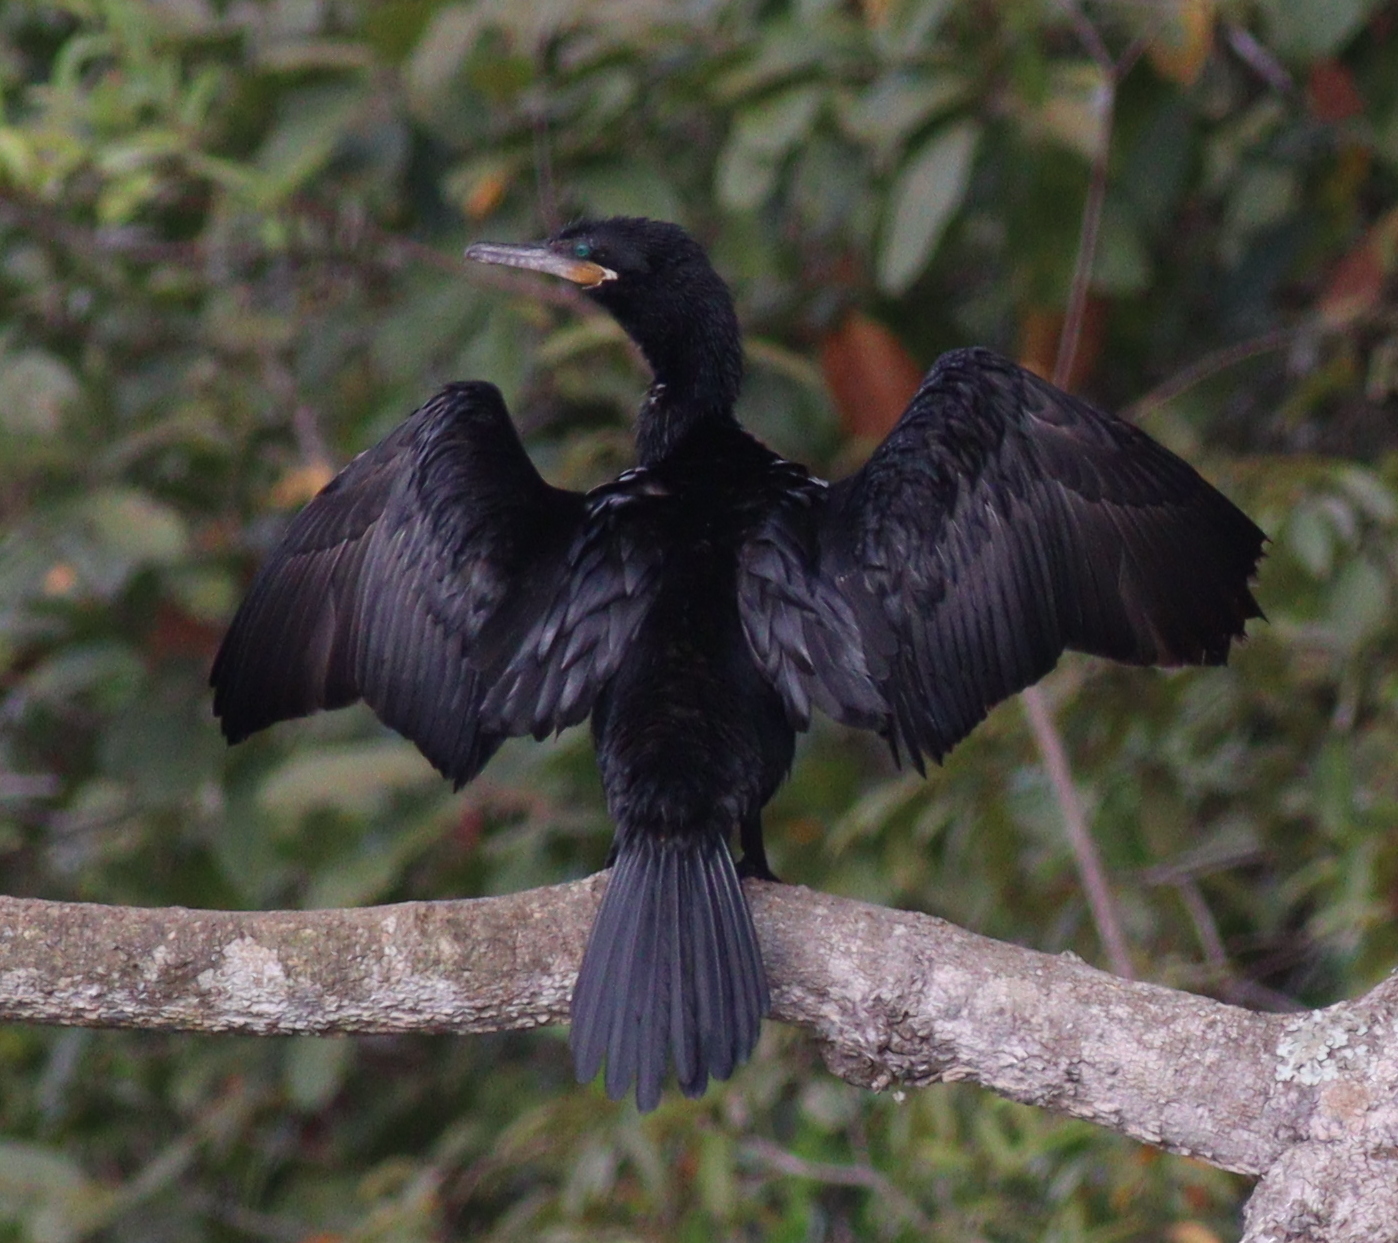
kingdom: Animalia
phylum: Chordata
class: Aves
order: Suliformes
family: Phalacrocoracidae
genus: Phalacrocorax
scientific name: Phalacrocorax brasilianus
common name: Neotropic cormorant
